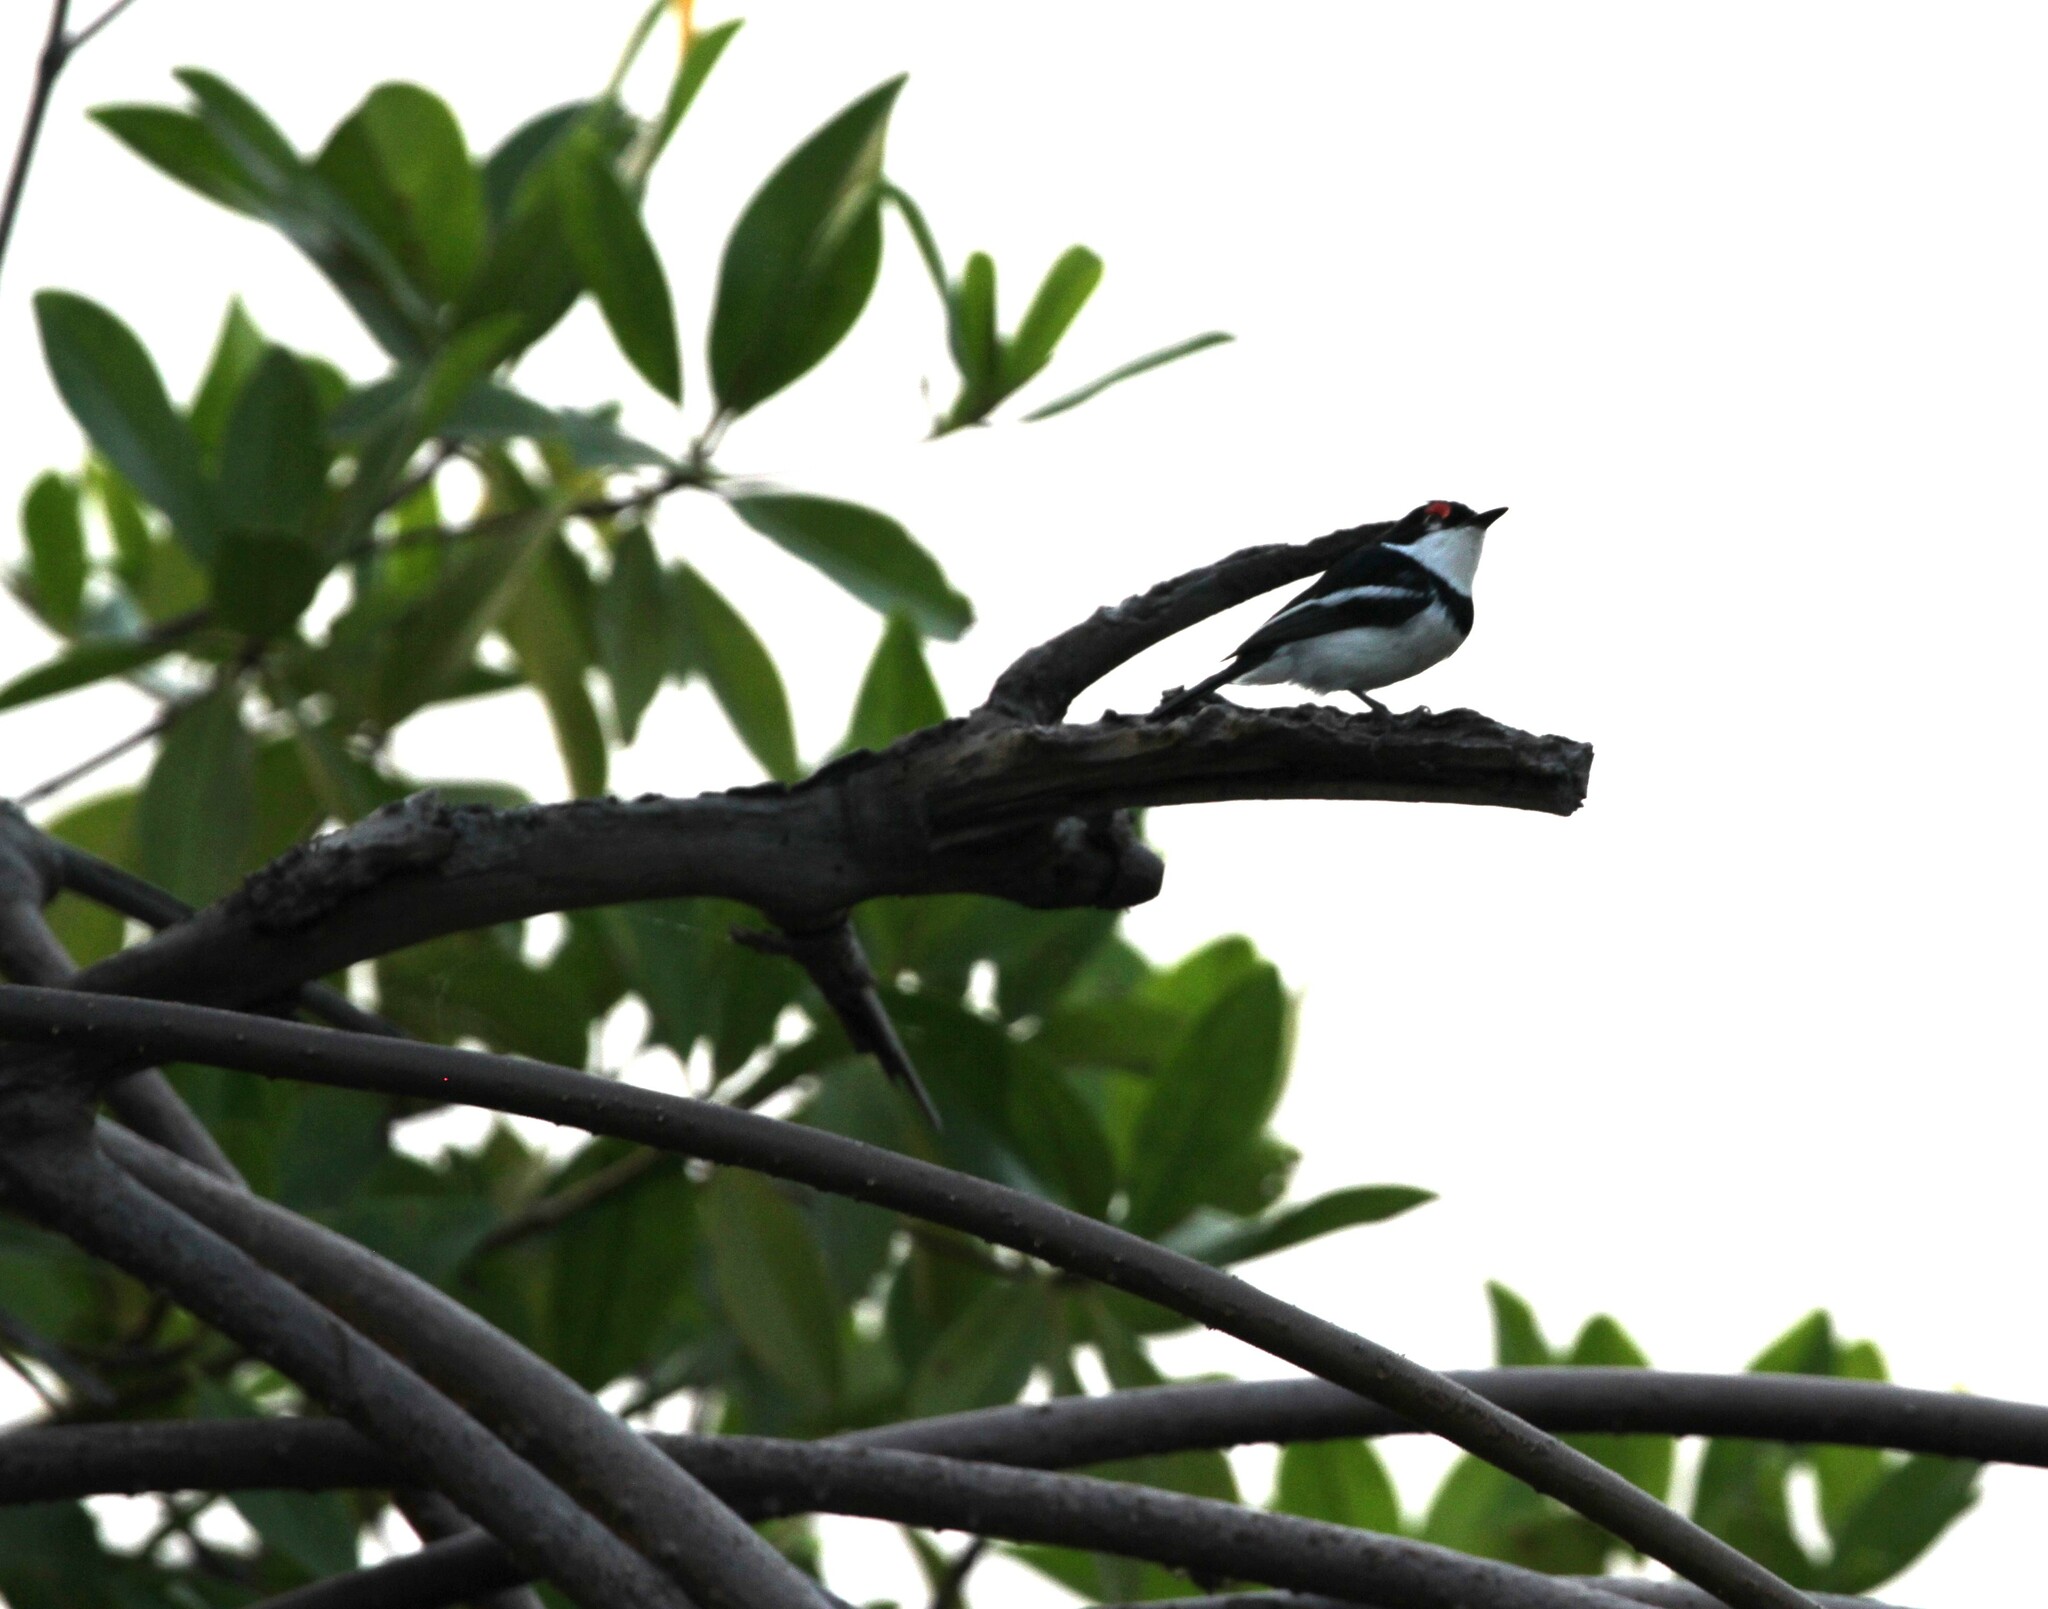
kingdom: Animalia
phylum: Chordata
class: Aves
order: Passeriformes
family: Platysteiridae
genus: Platysteira
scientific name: Platysteira cyanea
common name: Brown-throated wattle-eye
